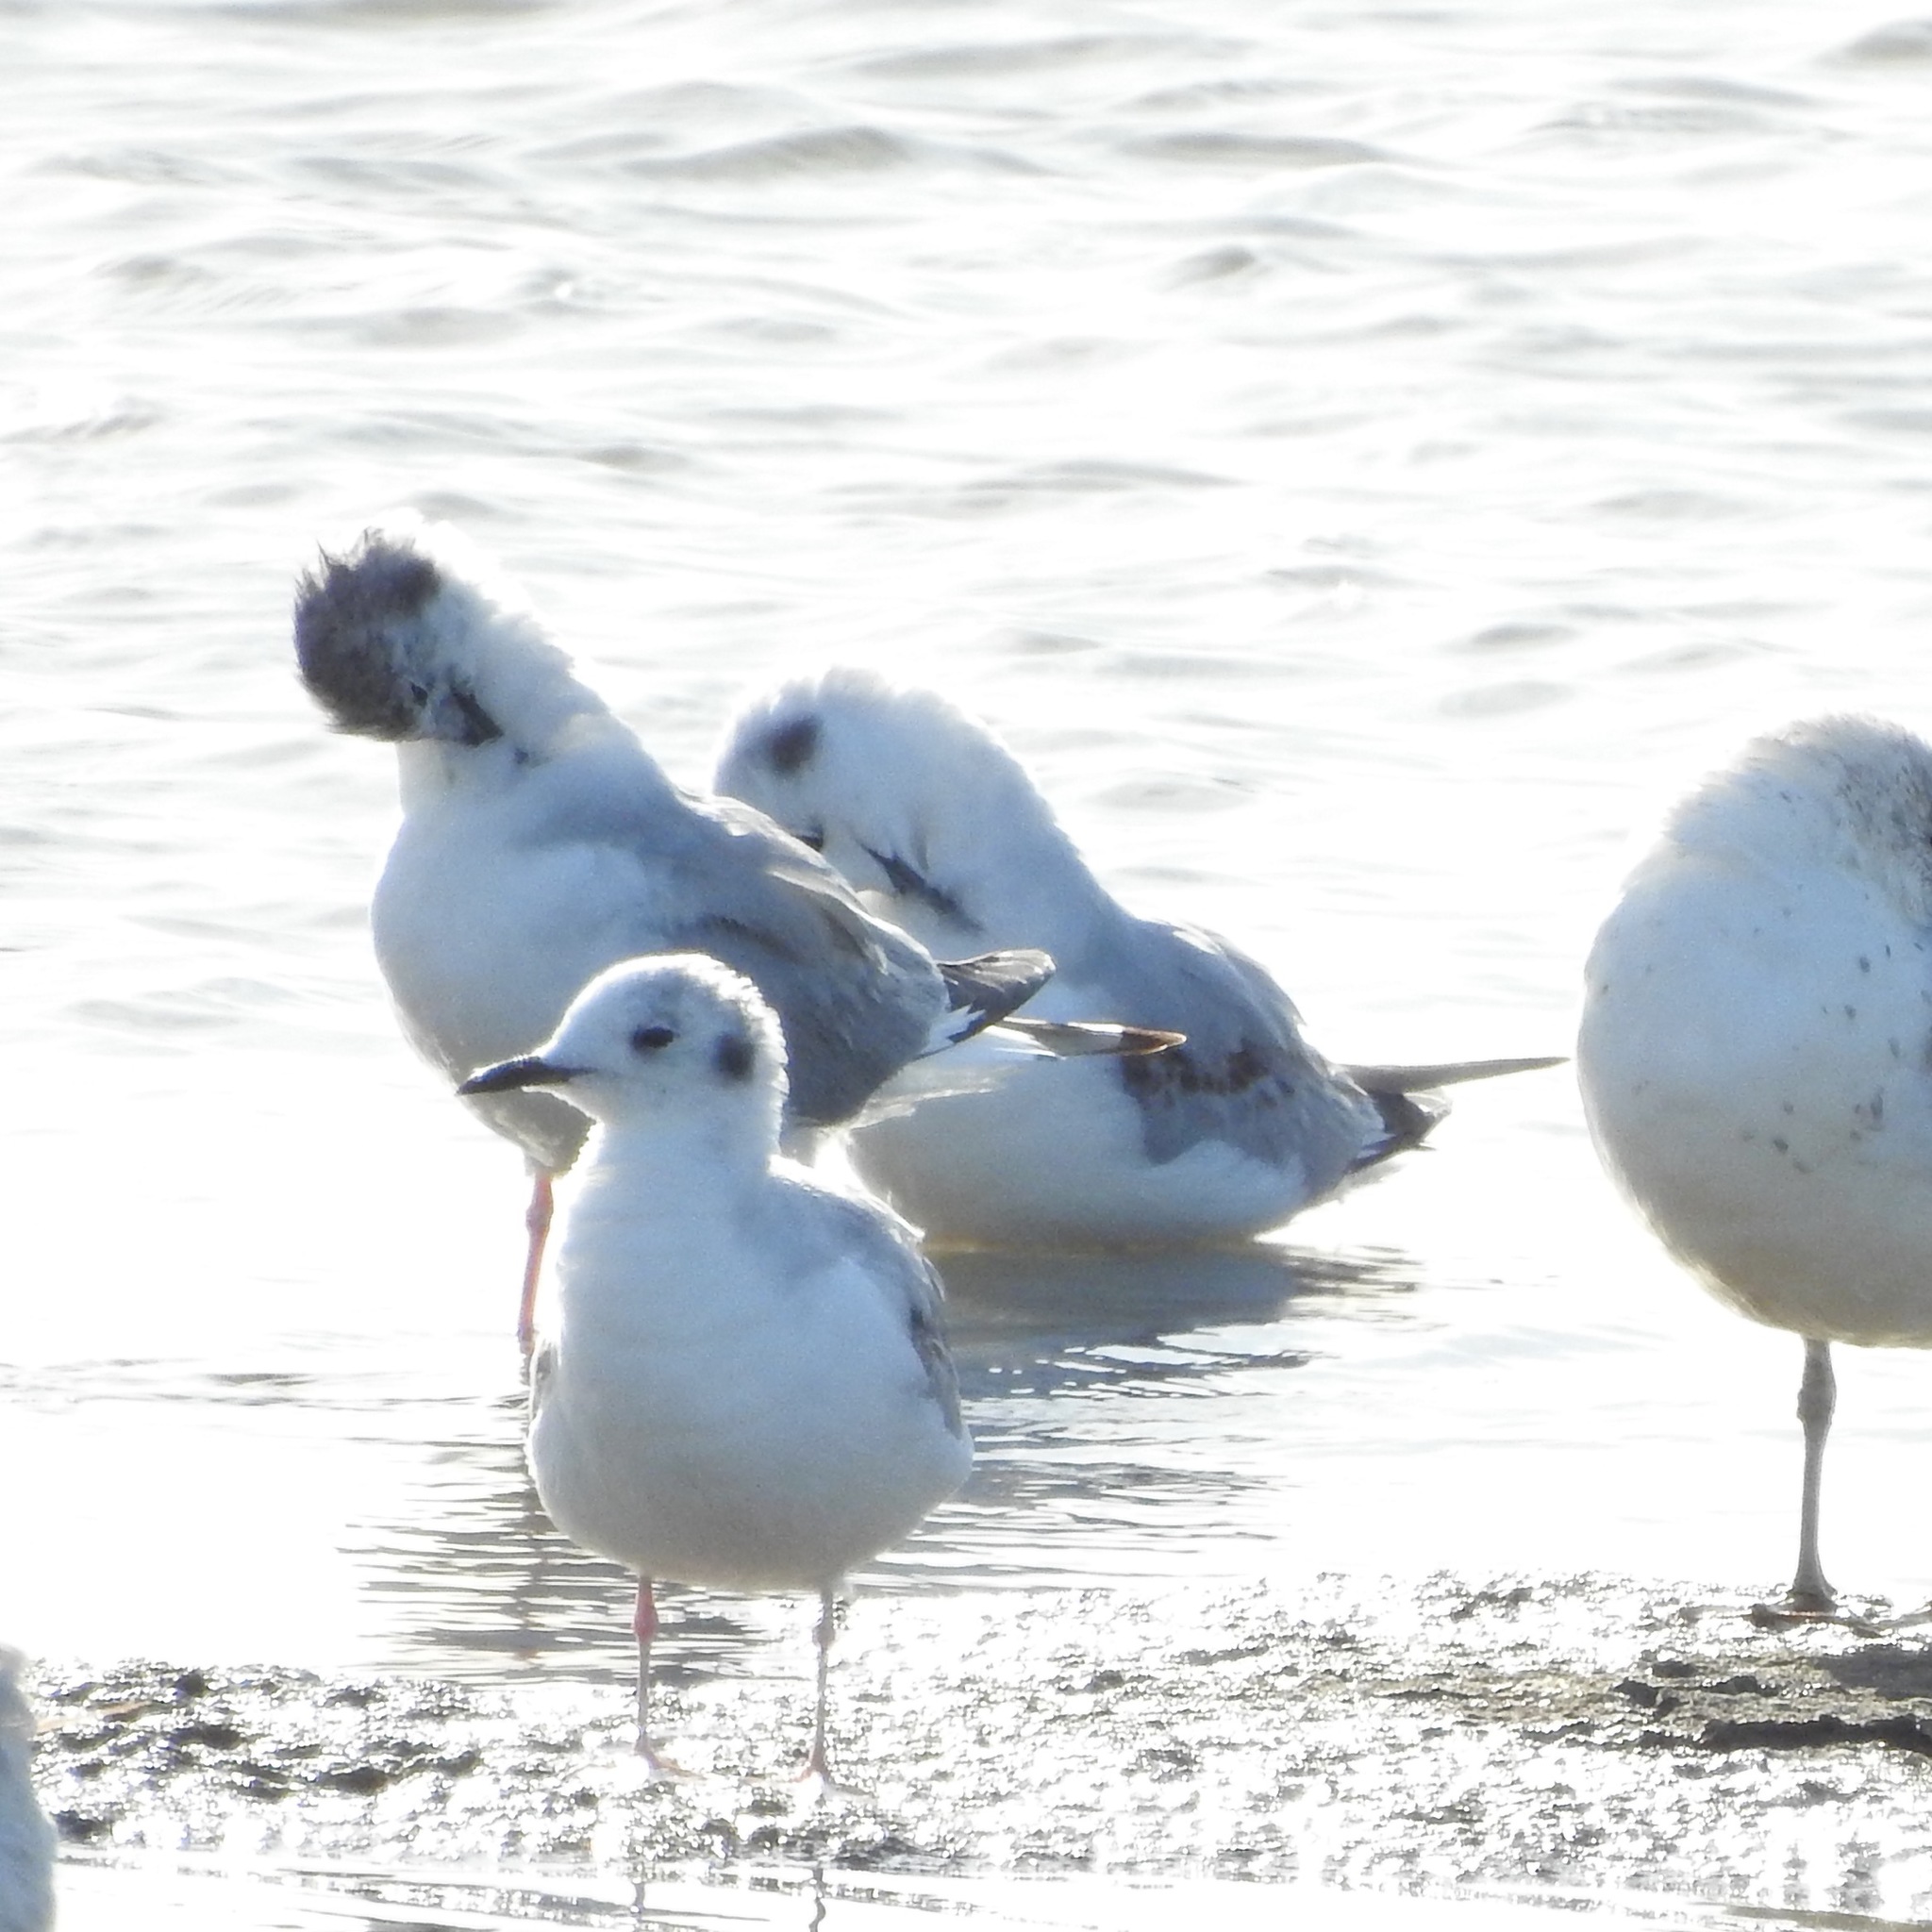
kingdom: Animalia
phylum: Chordata
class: Aves
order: Charadriiformes
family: Laridae
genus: Chroicocephalus
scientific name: Chroicocephalus philadelphia
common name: Bonaparte's gull
